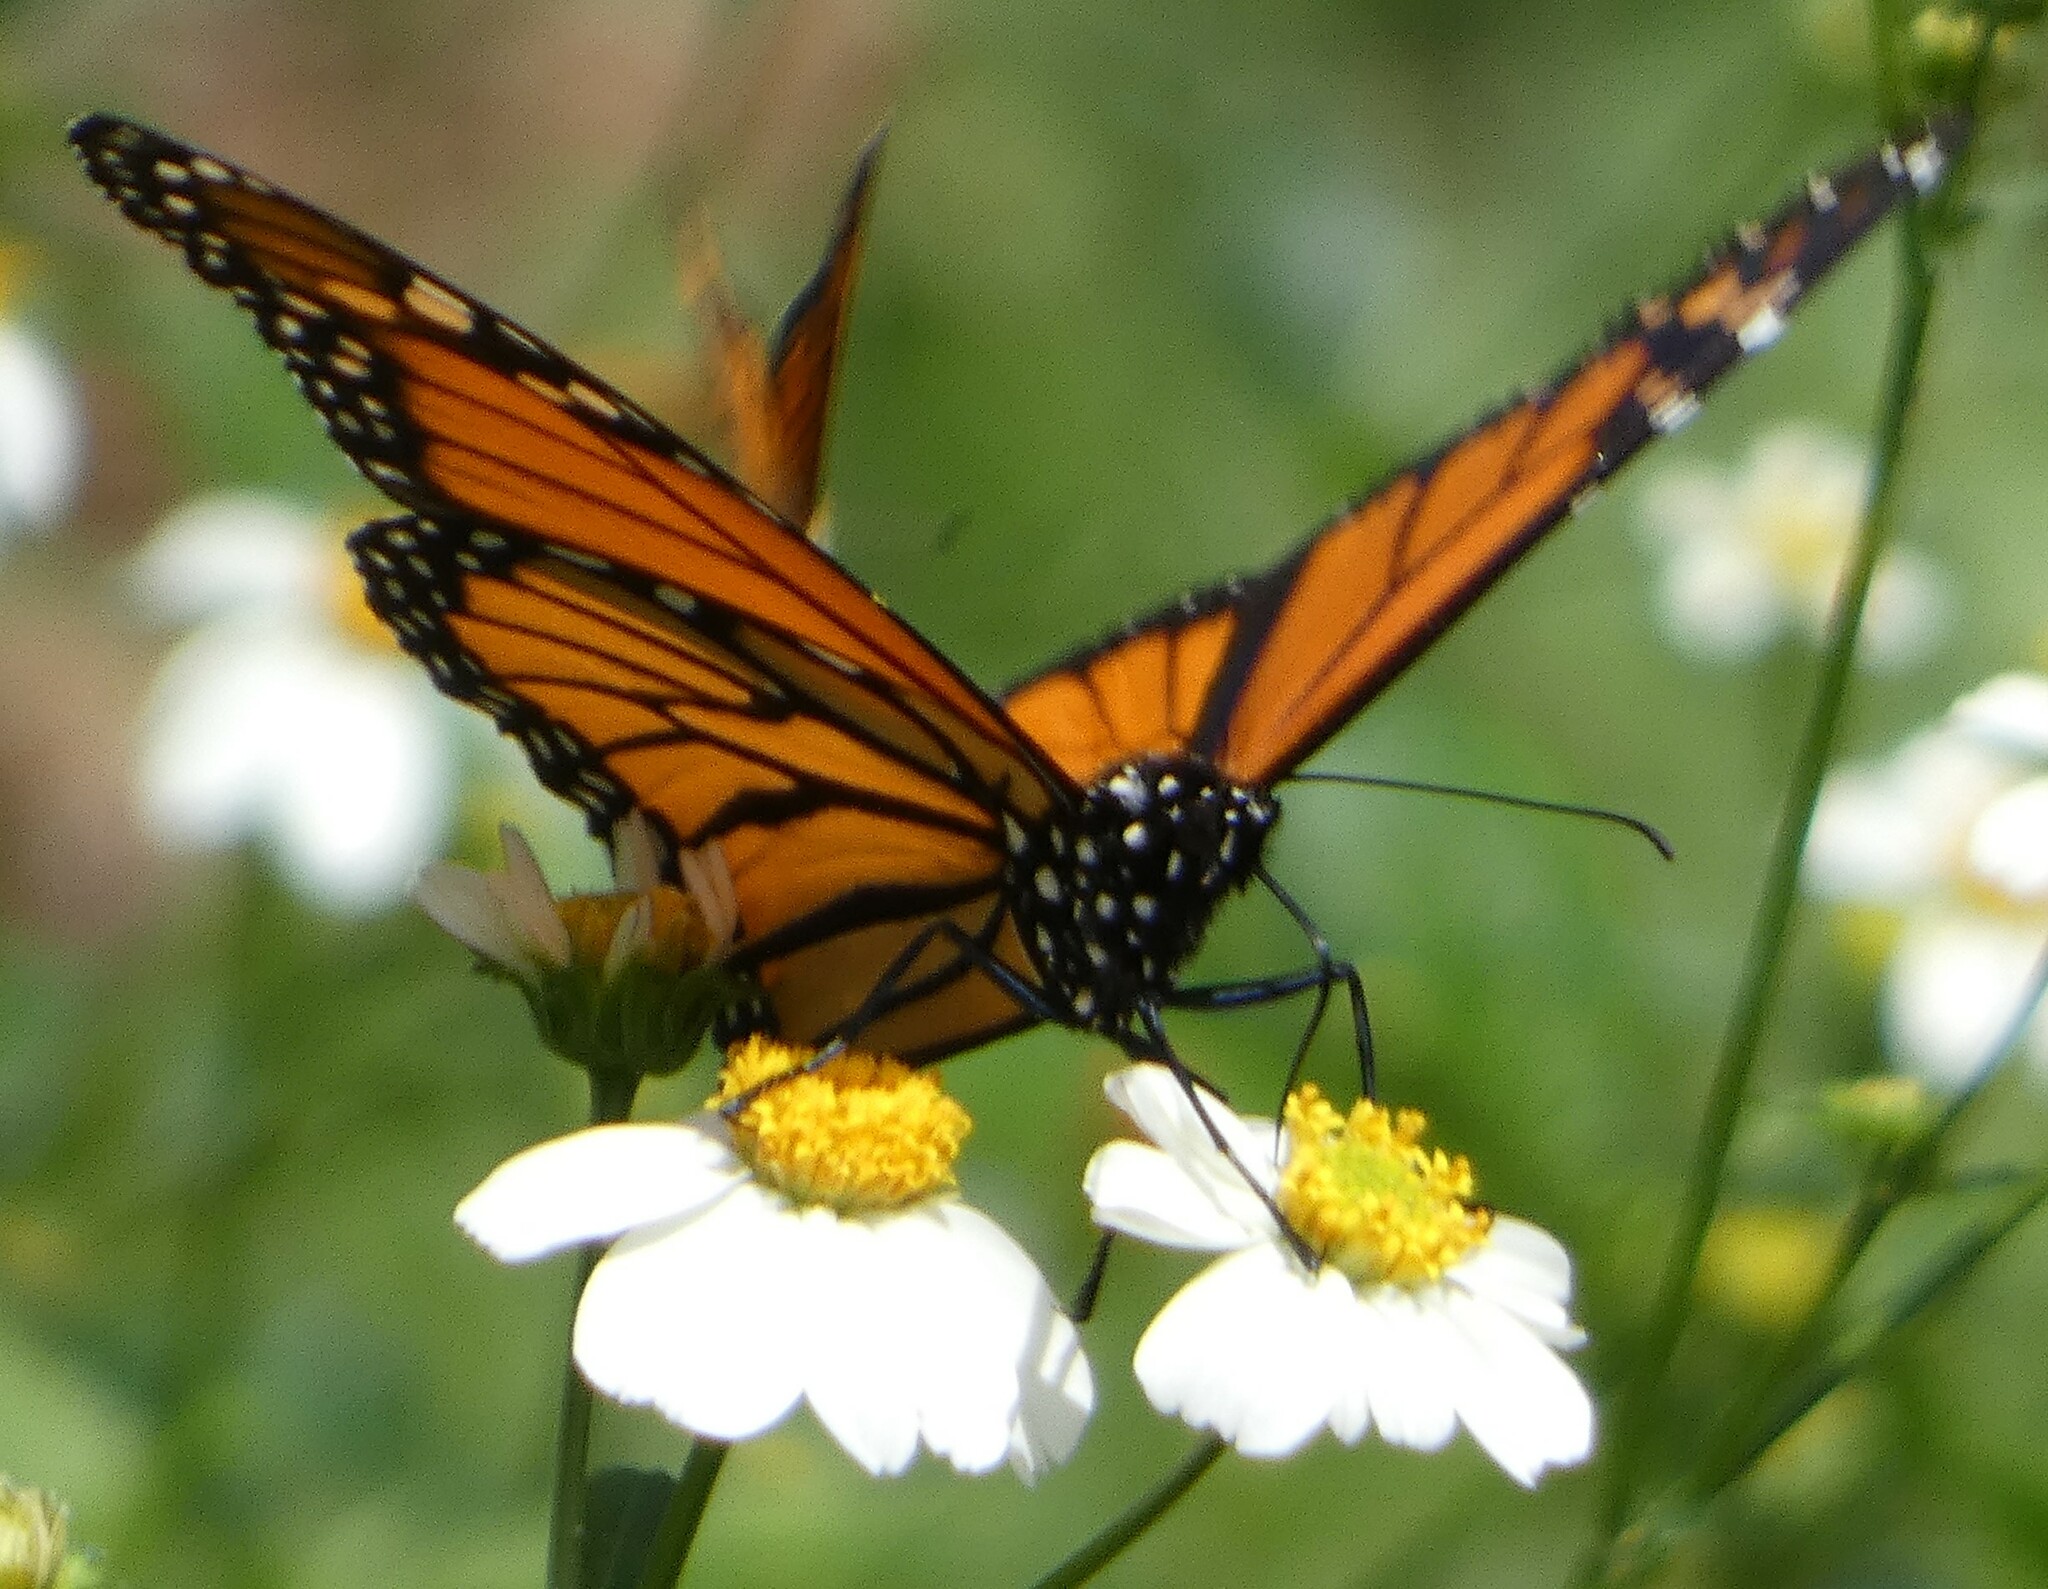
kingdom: Animalia
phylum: Arthropoda
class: Insecta
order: Lepidoptera
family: Nymphalidae
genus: Danaus
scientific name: Danaus plexippus
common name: Monarch
